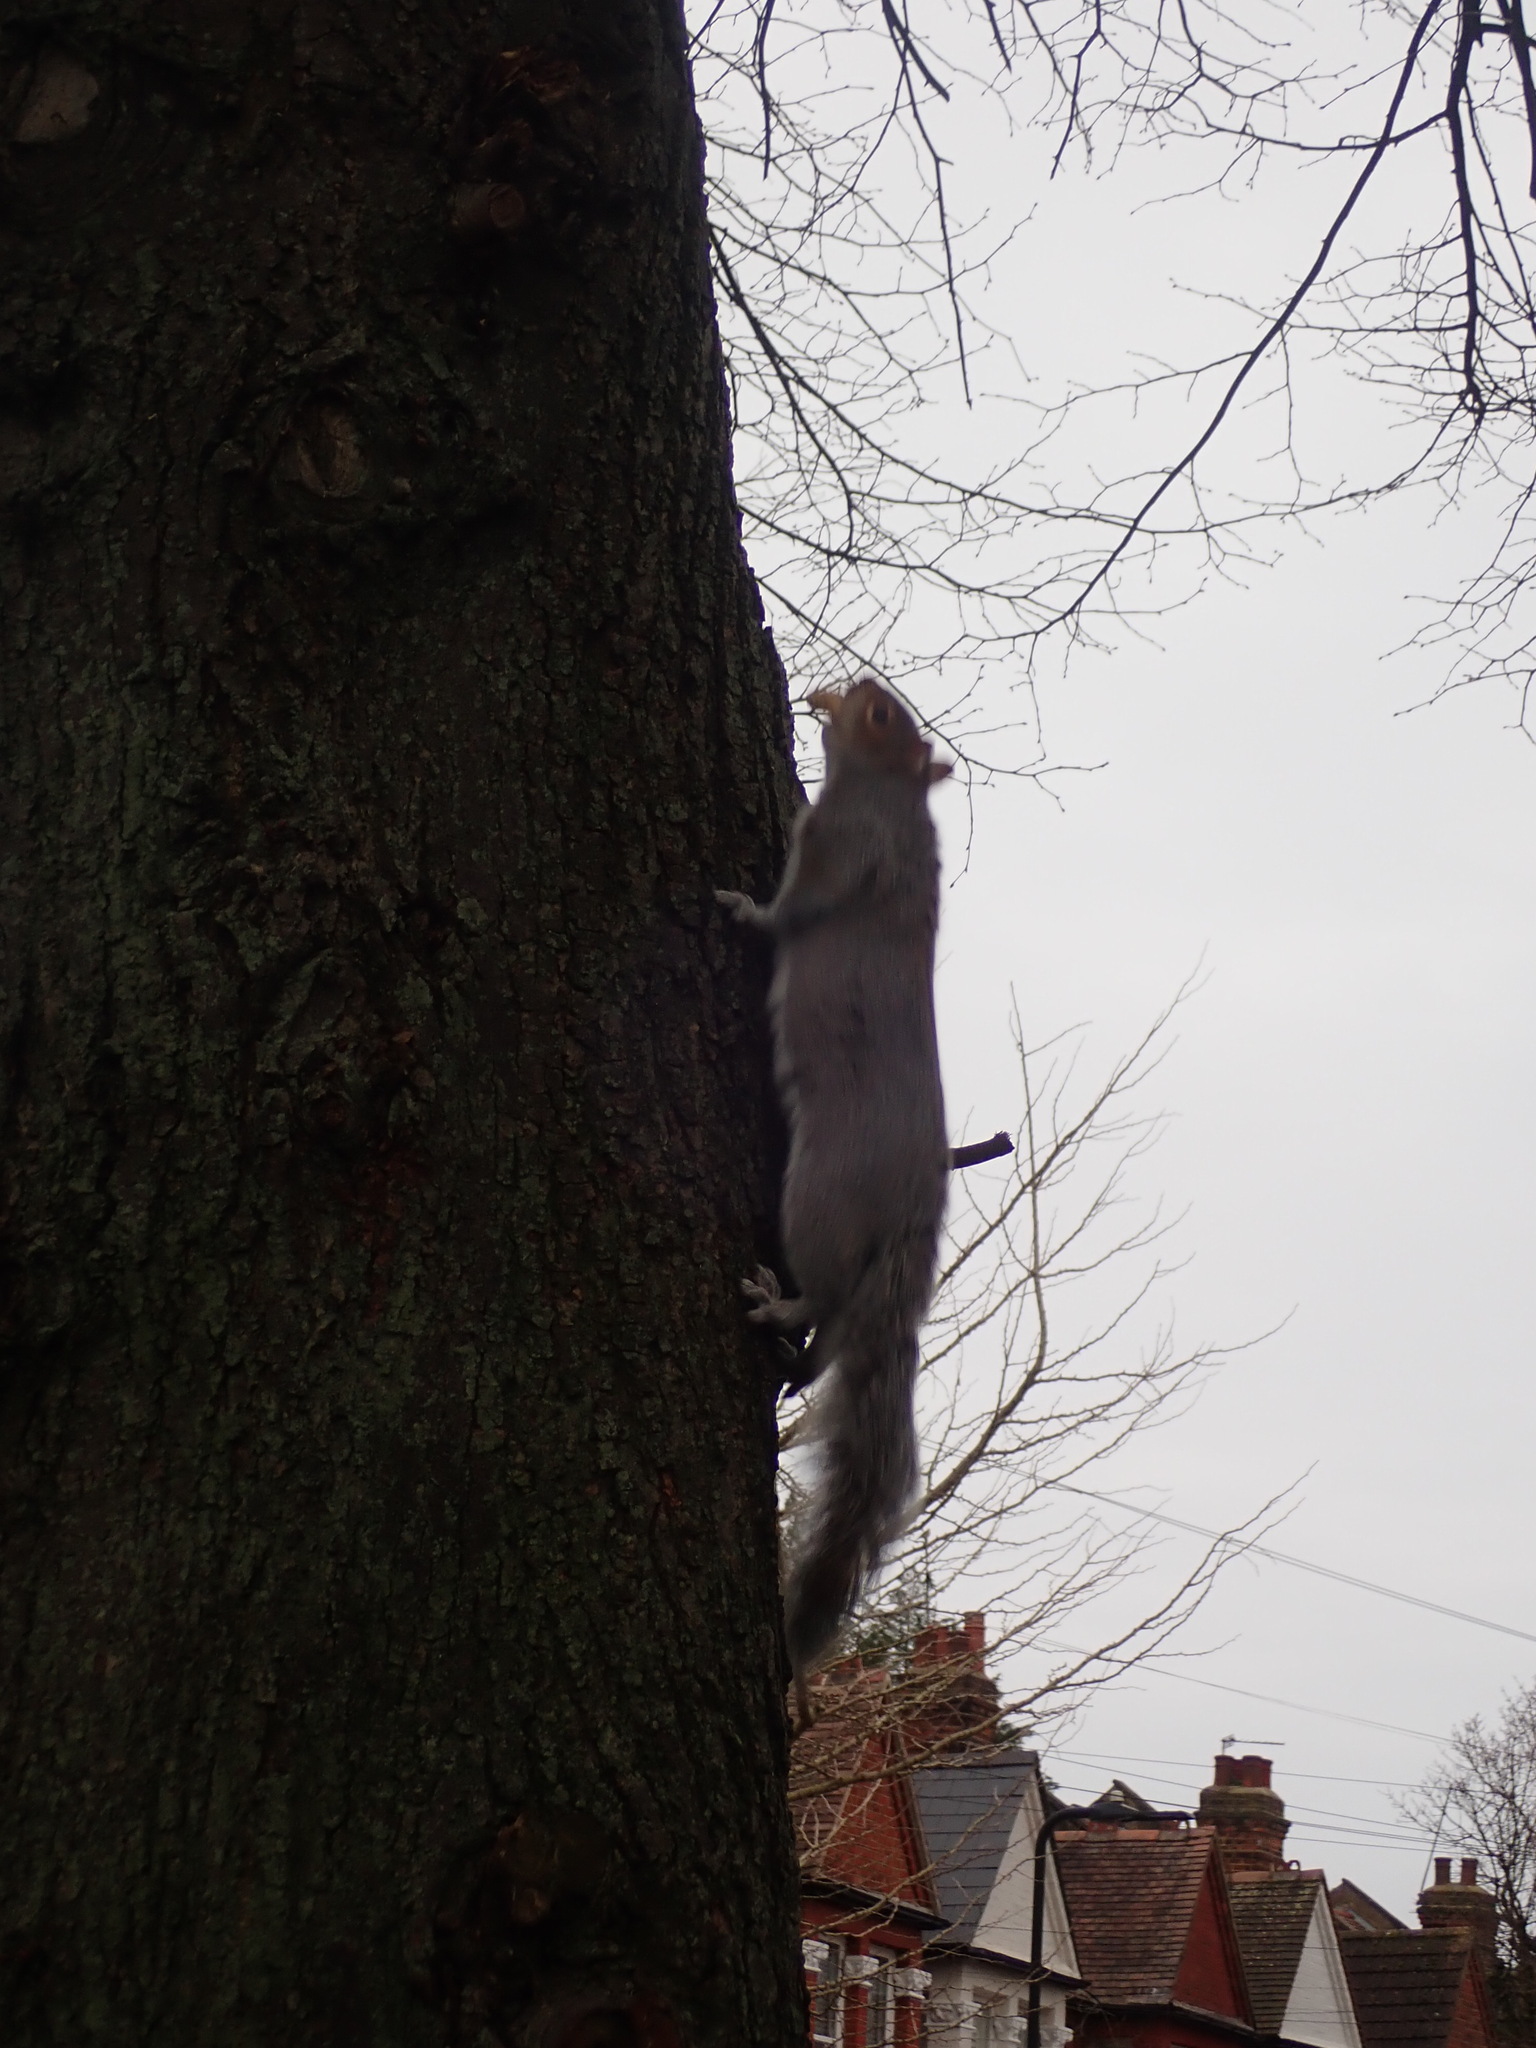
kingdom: Animalia
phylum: Chordata
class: Mammalia
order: Rodentia
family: Sciuridae
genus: Sciurus
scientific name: Sciurus carolinensis
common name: Eastern gray squirrel
